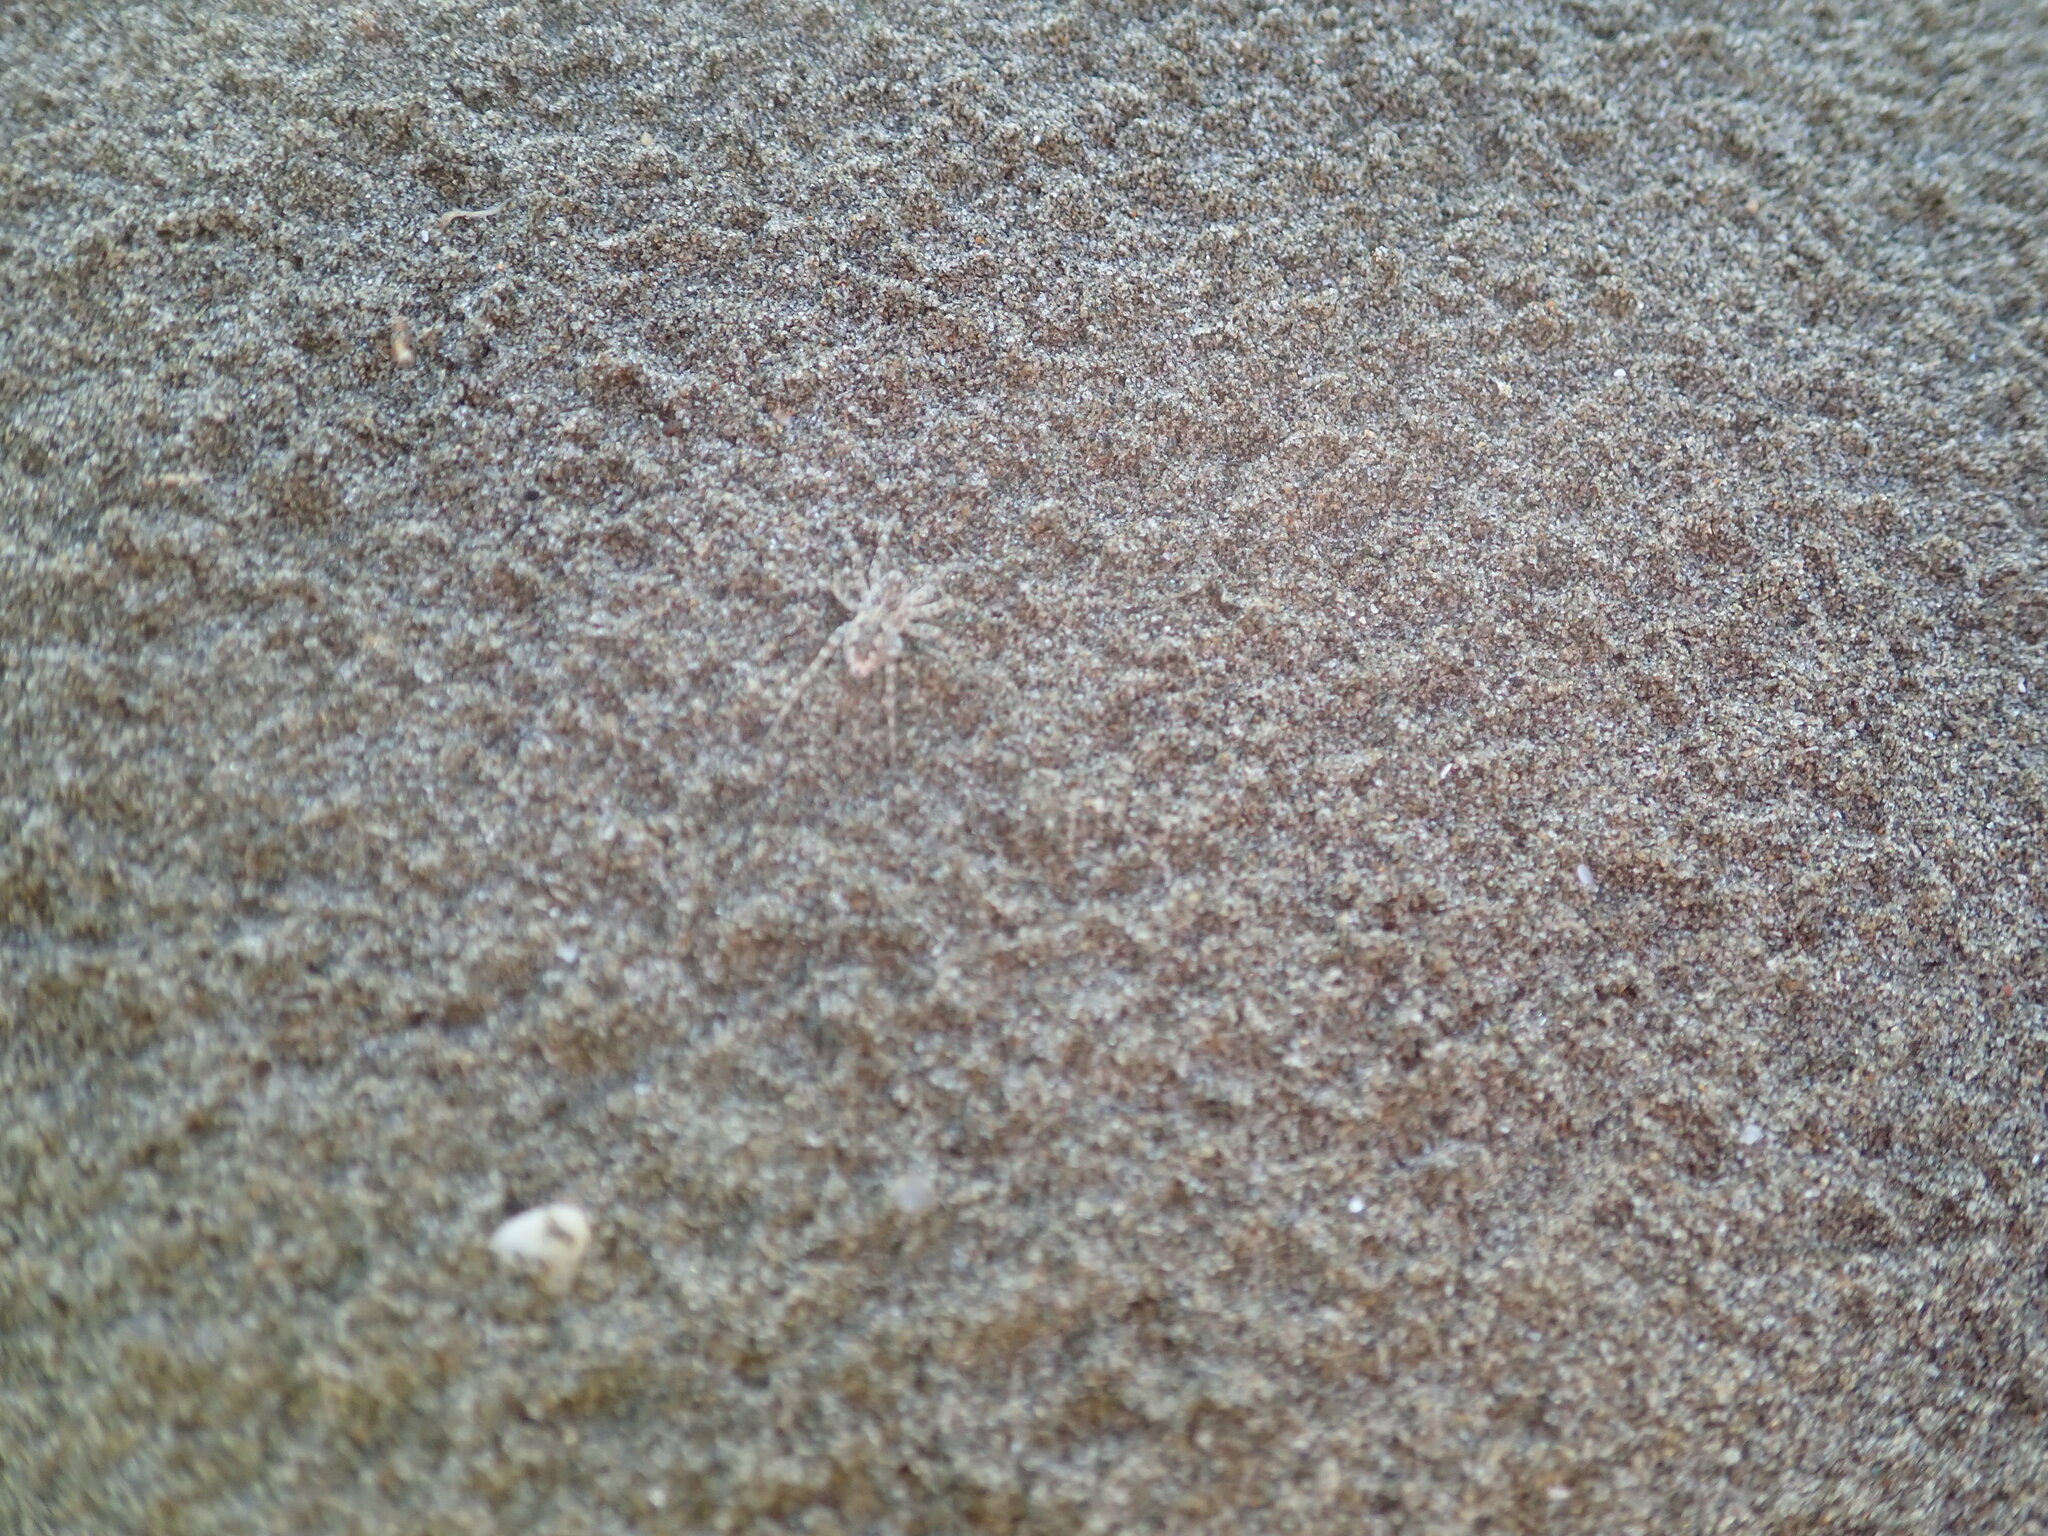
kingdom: Animalia
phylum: Arthropoda
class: Arachnida
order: Araneae
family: Lycosidae
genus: Anoteropsis
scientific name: Anoteropsis litoralis
